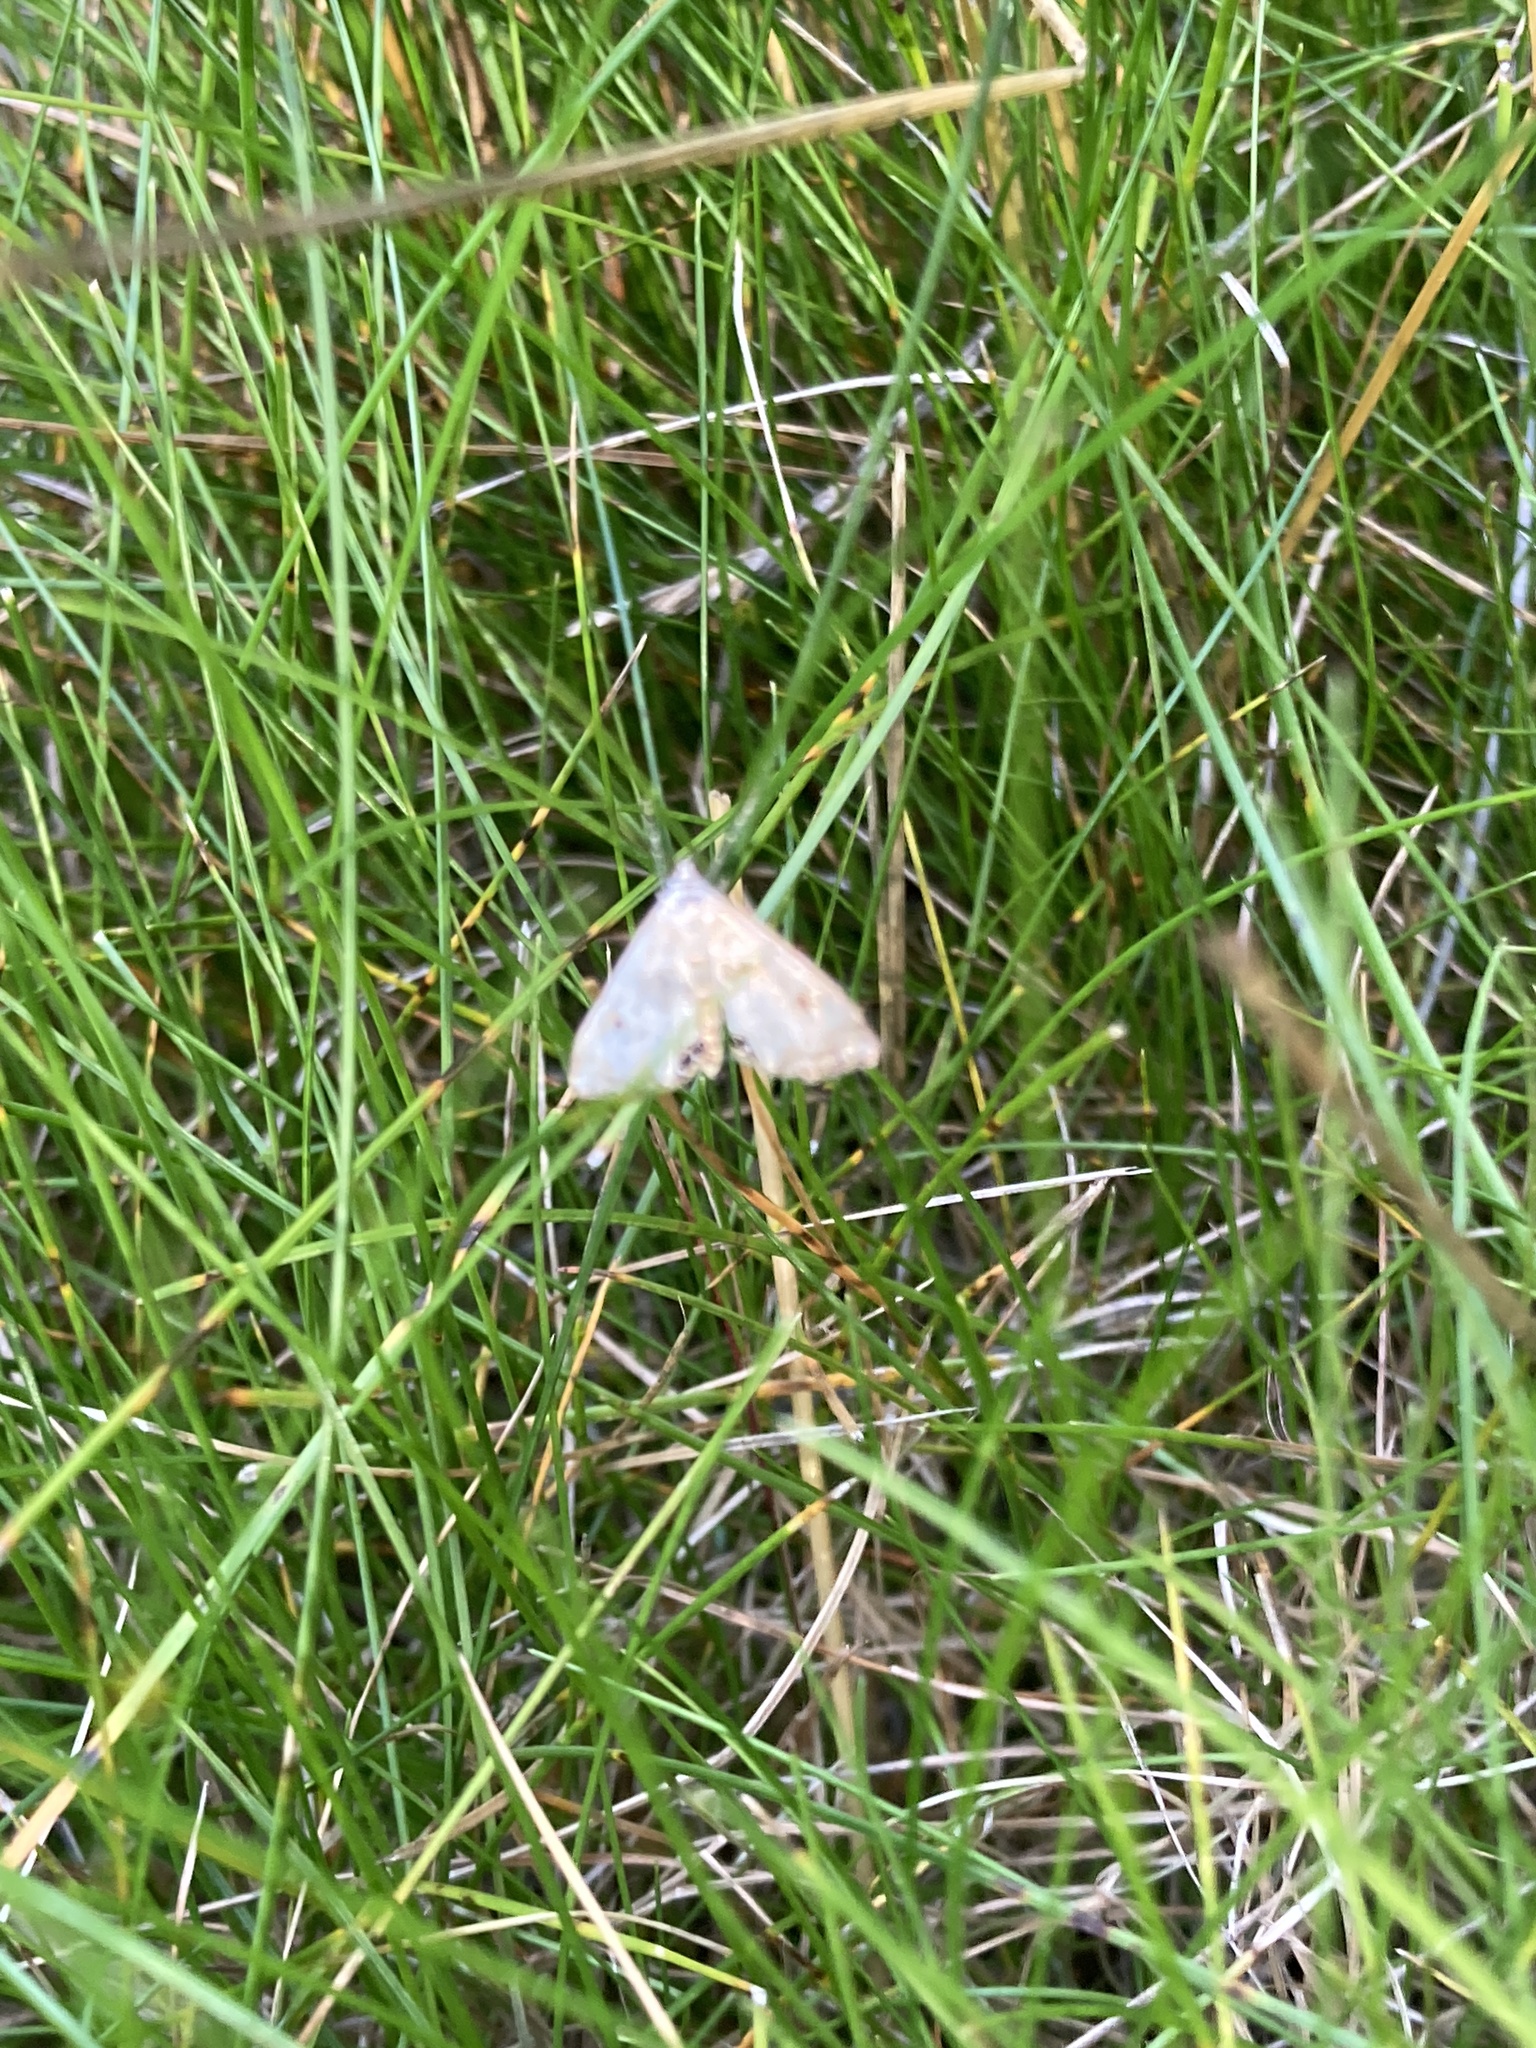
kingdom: Animalia
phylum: Arthropoda
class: Insecta
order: Lepidoptera
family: Crambidae
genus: Cataclysta
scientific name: Cataclysta lemnata
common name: Small china-mark
